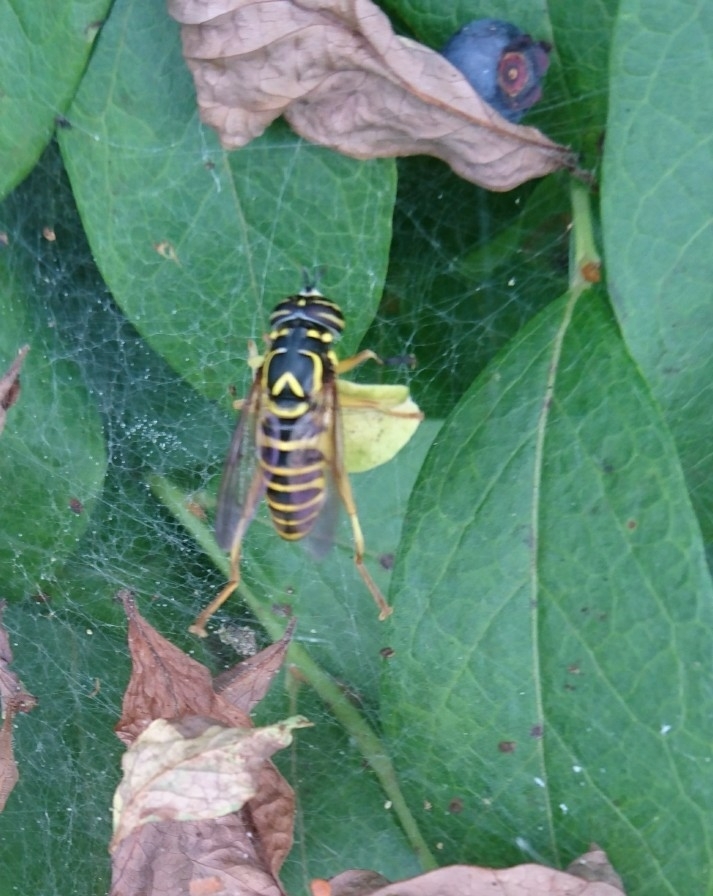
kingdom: Animalia
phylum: Arthropoda
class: Insecta
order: Diptera
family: Syrphidae
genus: Spilomyia
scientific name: Spilomyia longicornis
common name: Eastern hornet fly
